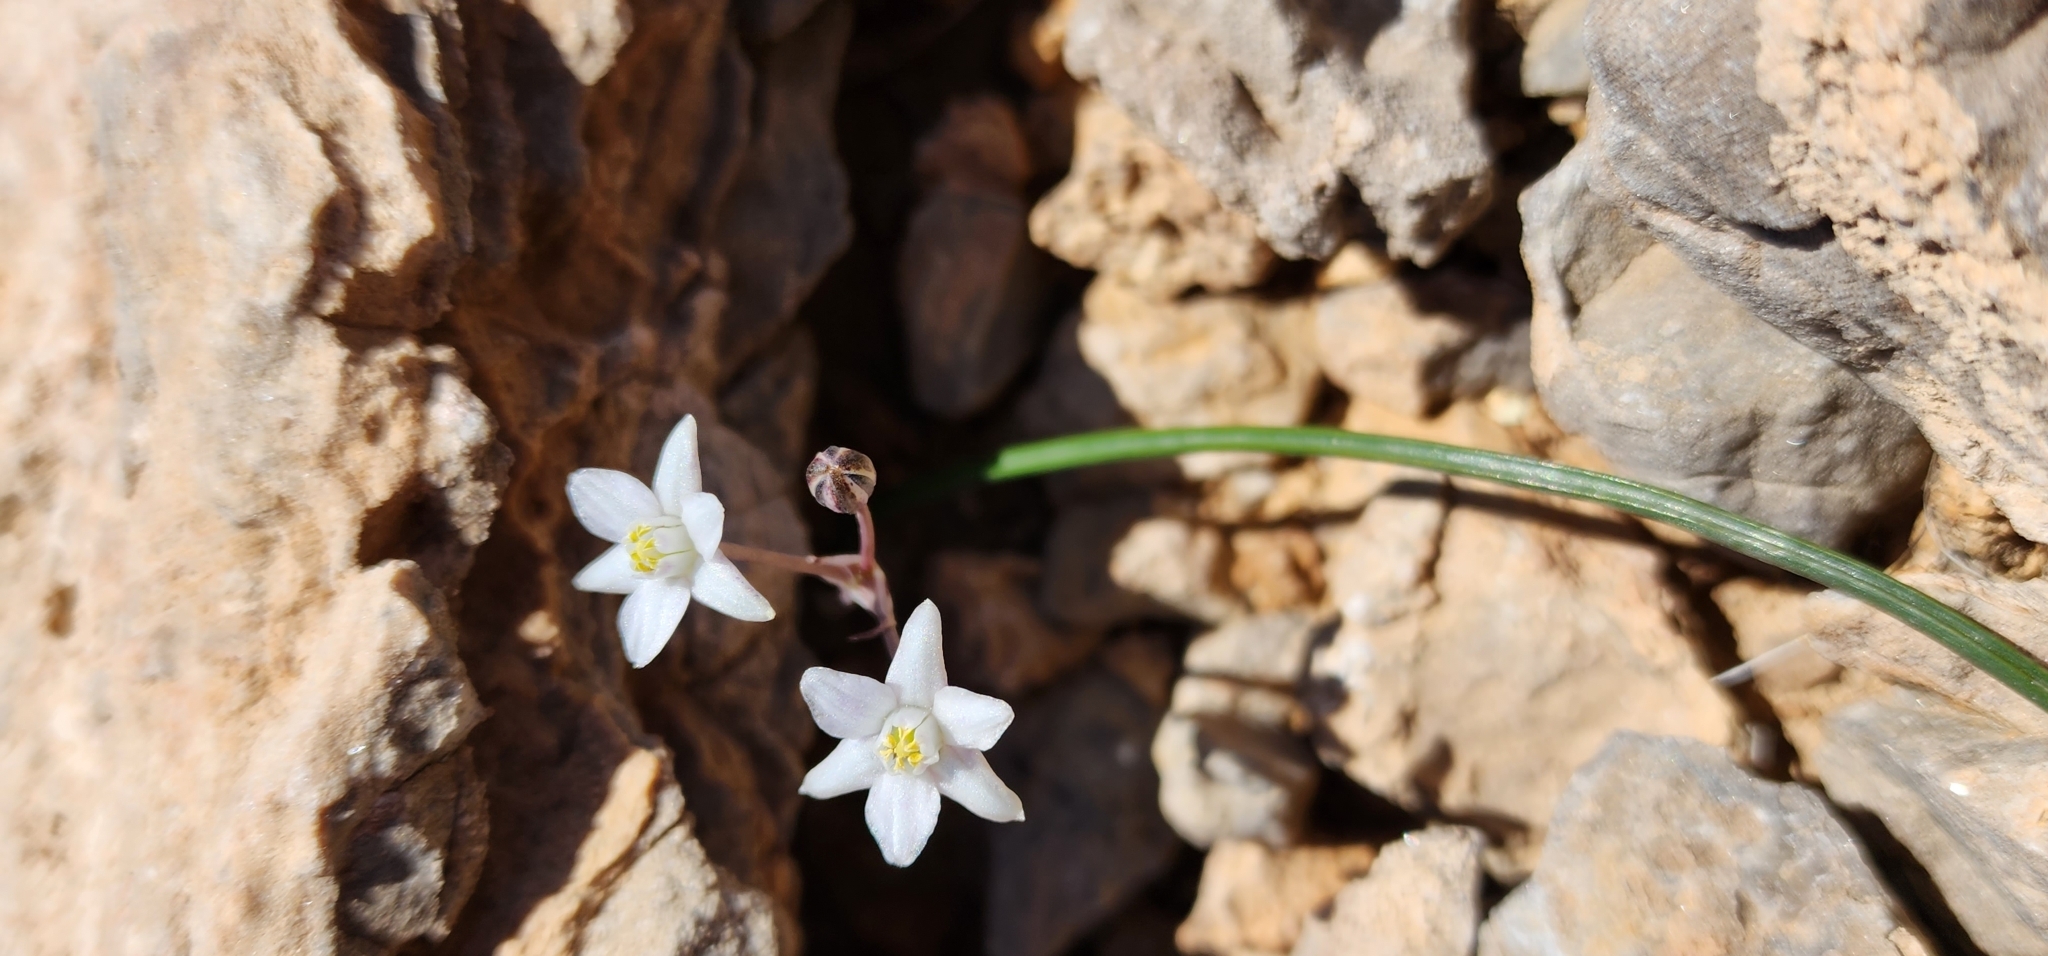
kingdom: Plantae
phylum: Tracheophyta
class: Liliopsida
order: Asparagales
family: Asparagaceae
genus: Muilla
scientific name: Muilla coronata
